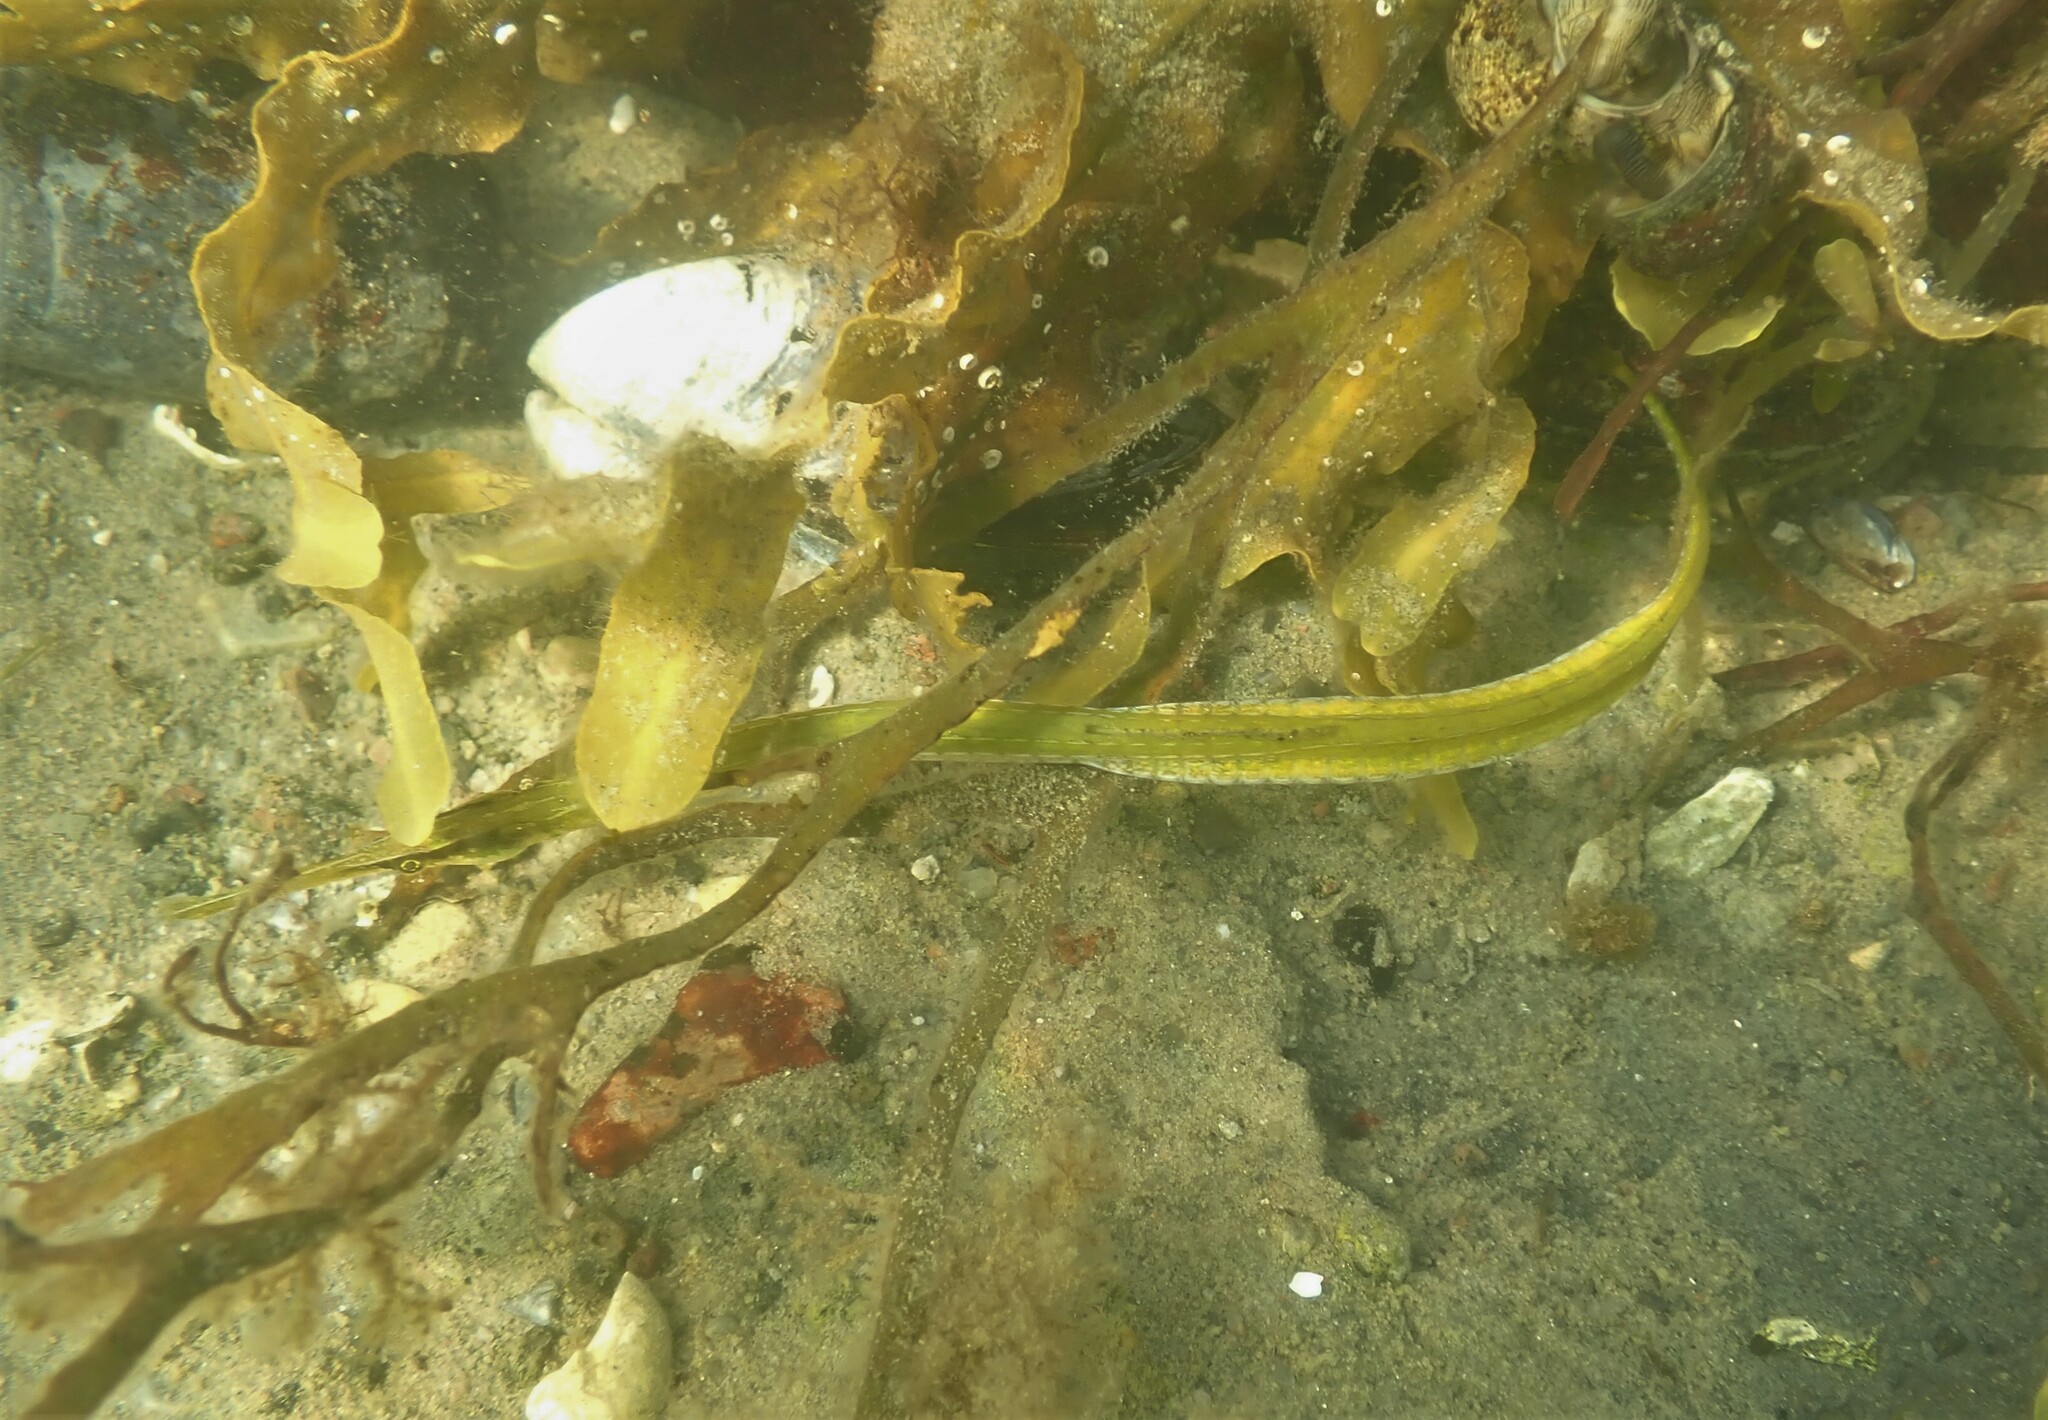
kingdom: Animalia
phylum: Chordata
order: Syngnathiformes
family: Syngnathidae
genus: Syngnathus
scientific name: Syngnathus typhle
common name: Deep-snouted pipefish
